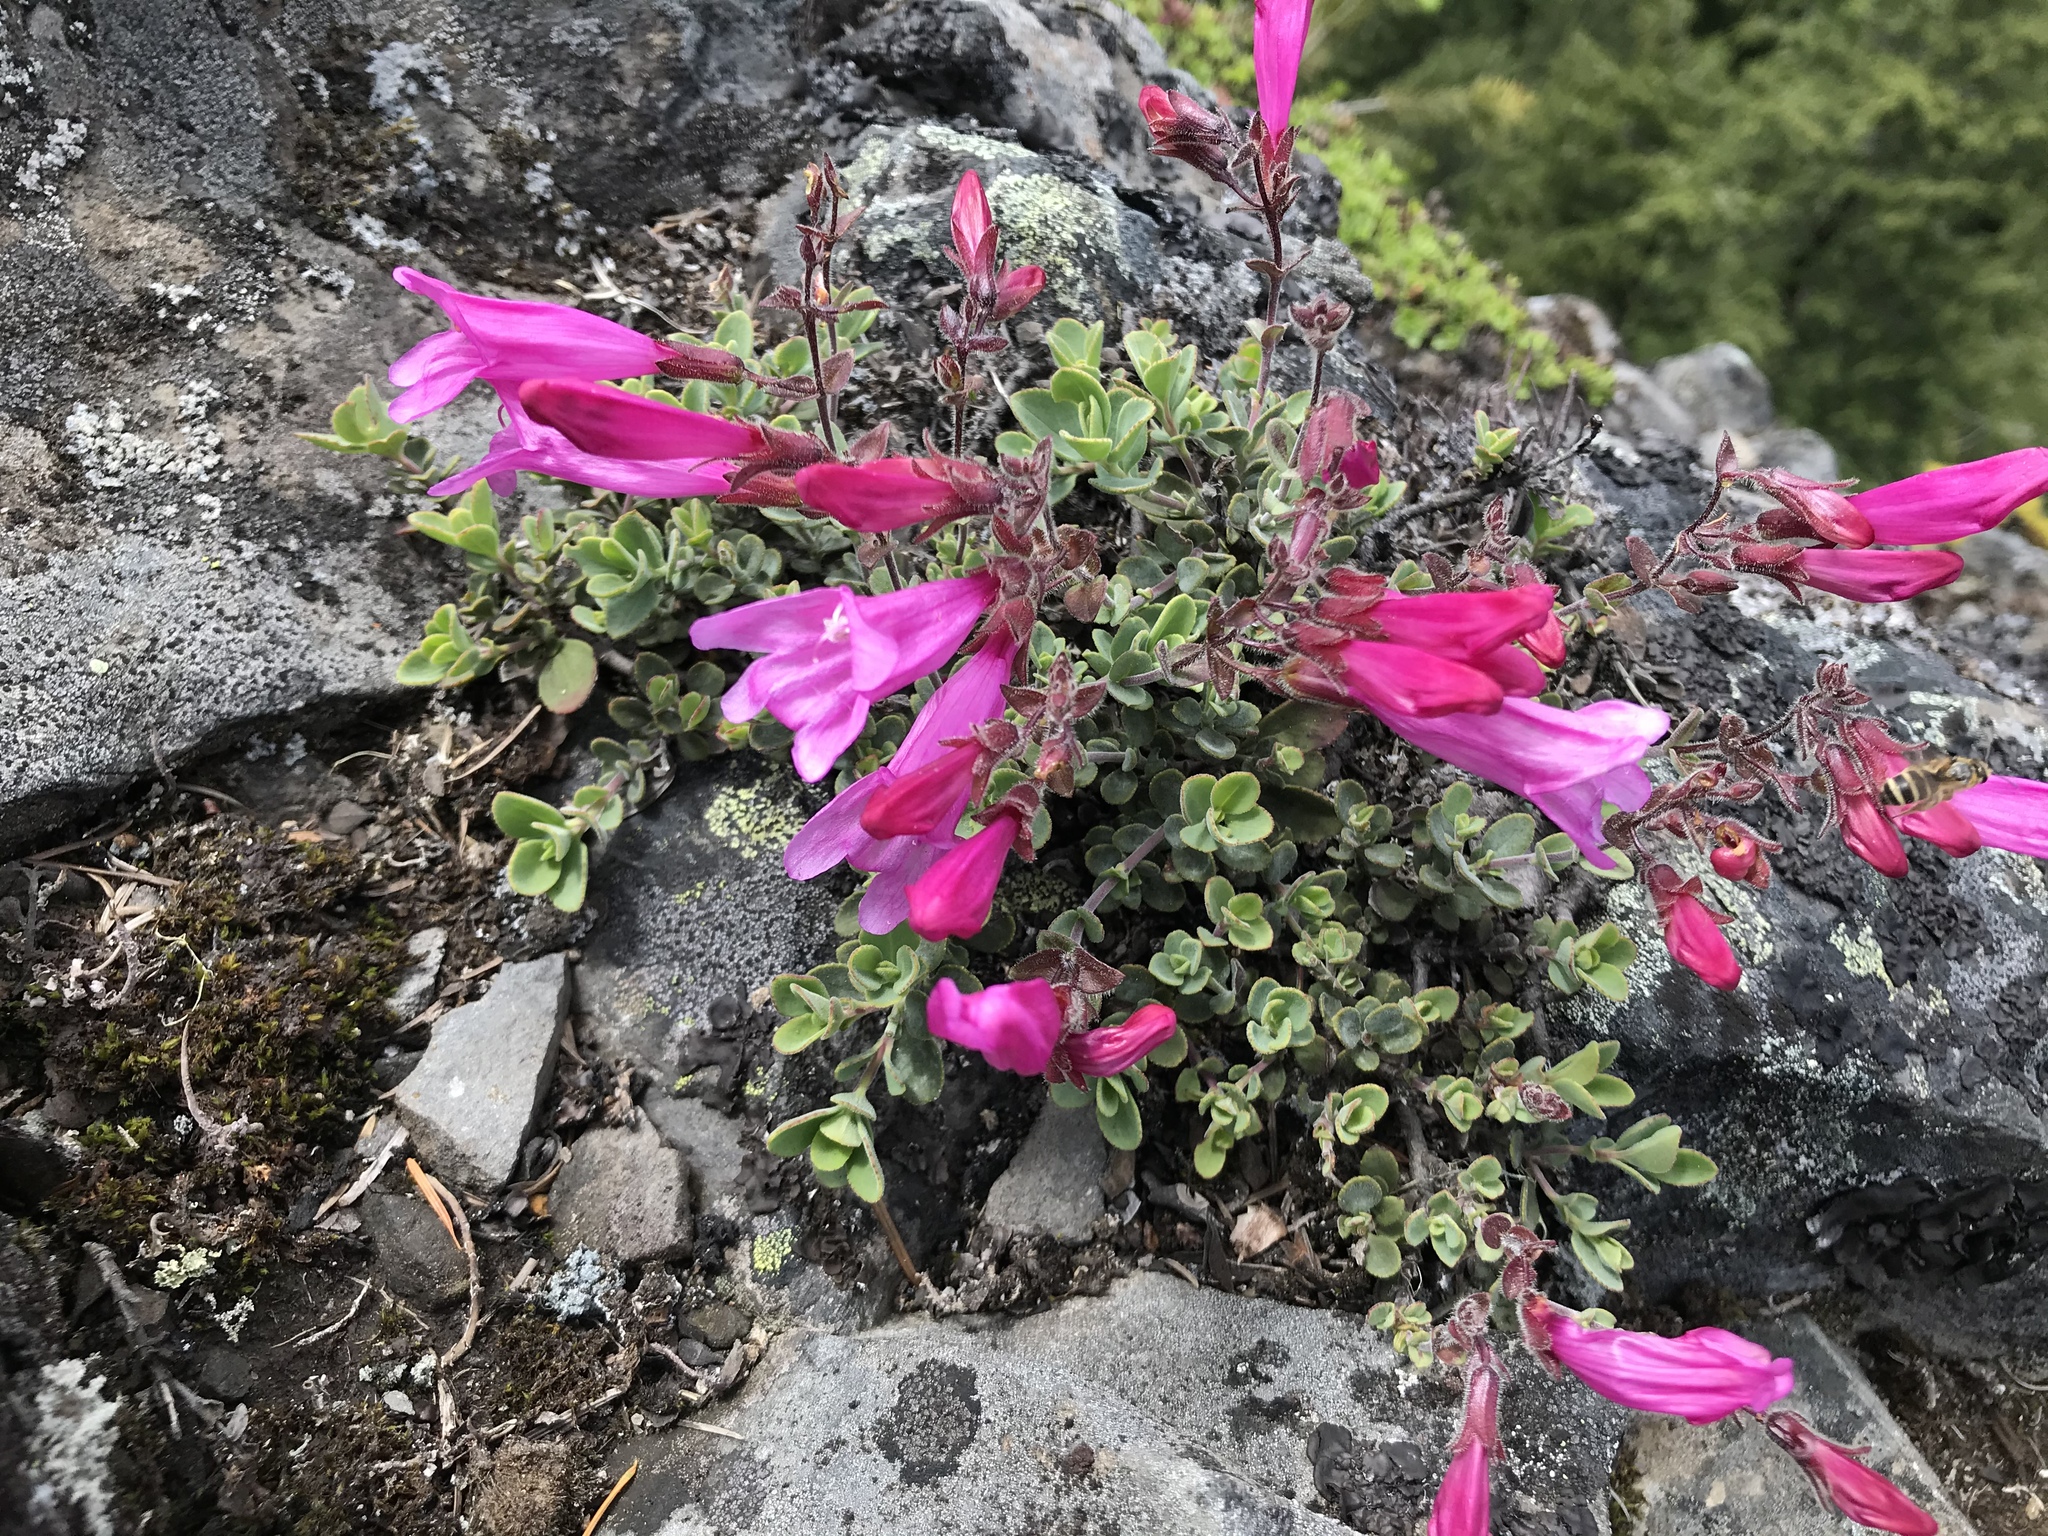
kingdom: Plantae
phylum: Tracheophyta
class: Magnoliopsida
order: Lamiales
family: Plantaginaceae
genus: Penstemon
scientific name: Penstemon rupicola
